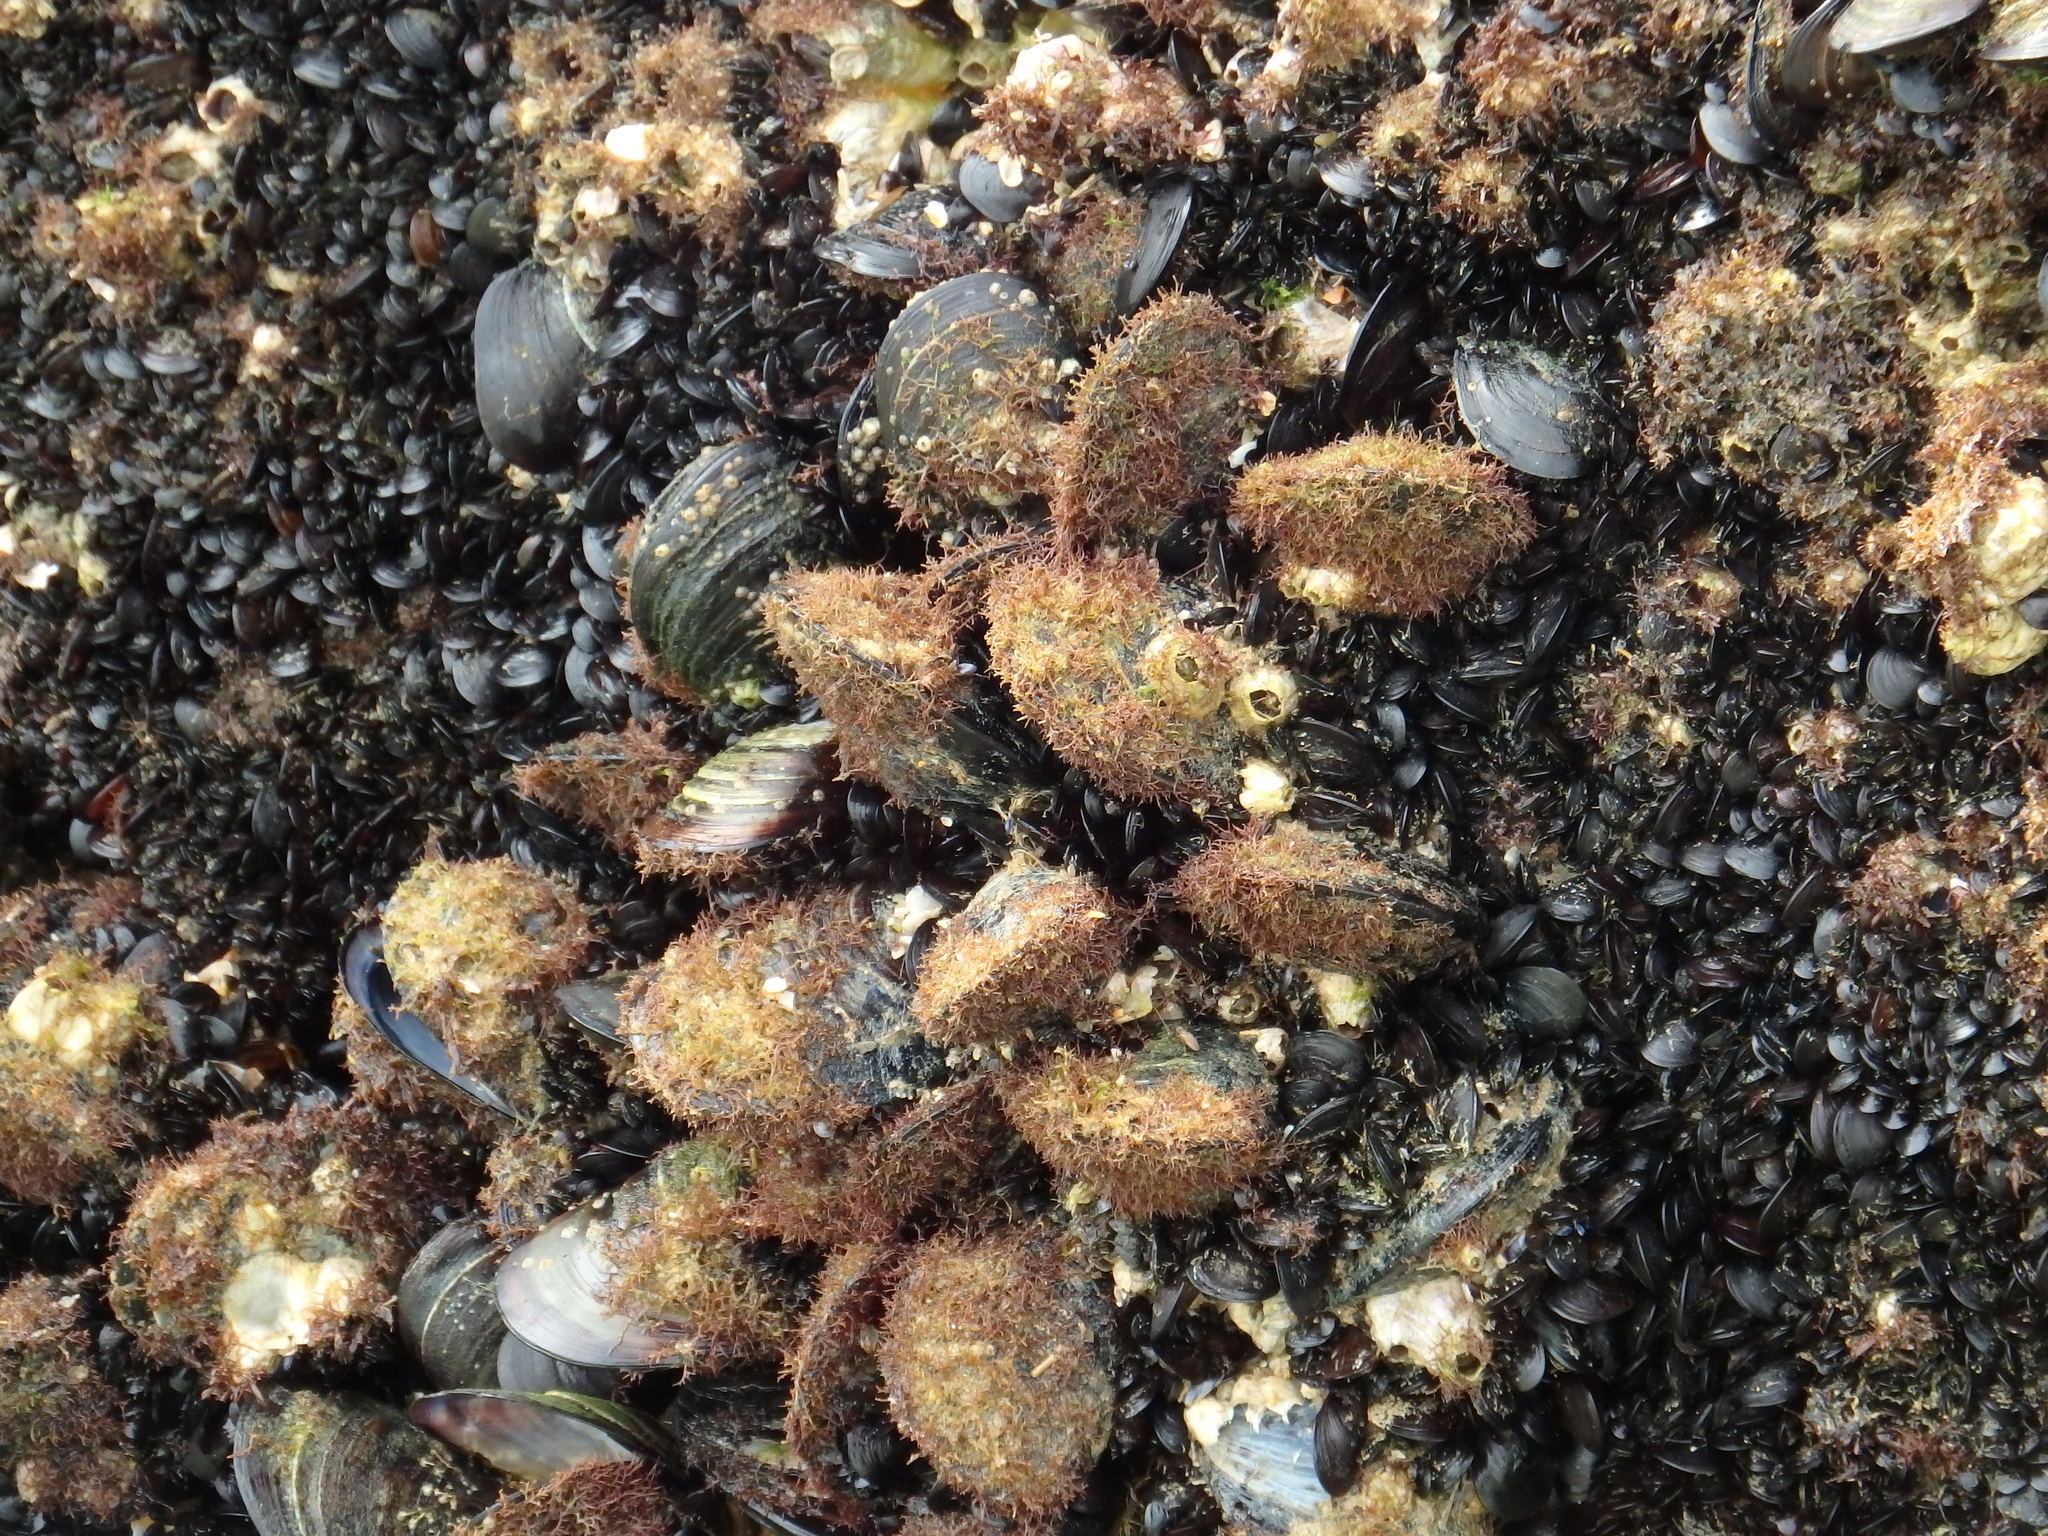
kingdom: Animalia
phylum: Mollusca
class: Bivalvia
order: Mytilida
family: Mytilidae
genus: Mytilus
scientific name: Mytilus galloprovincialis
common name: Mediterranean mussel
